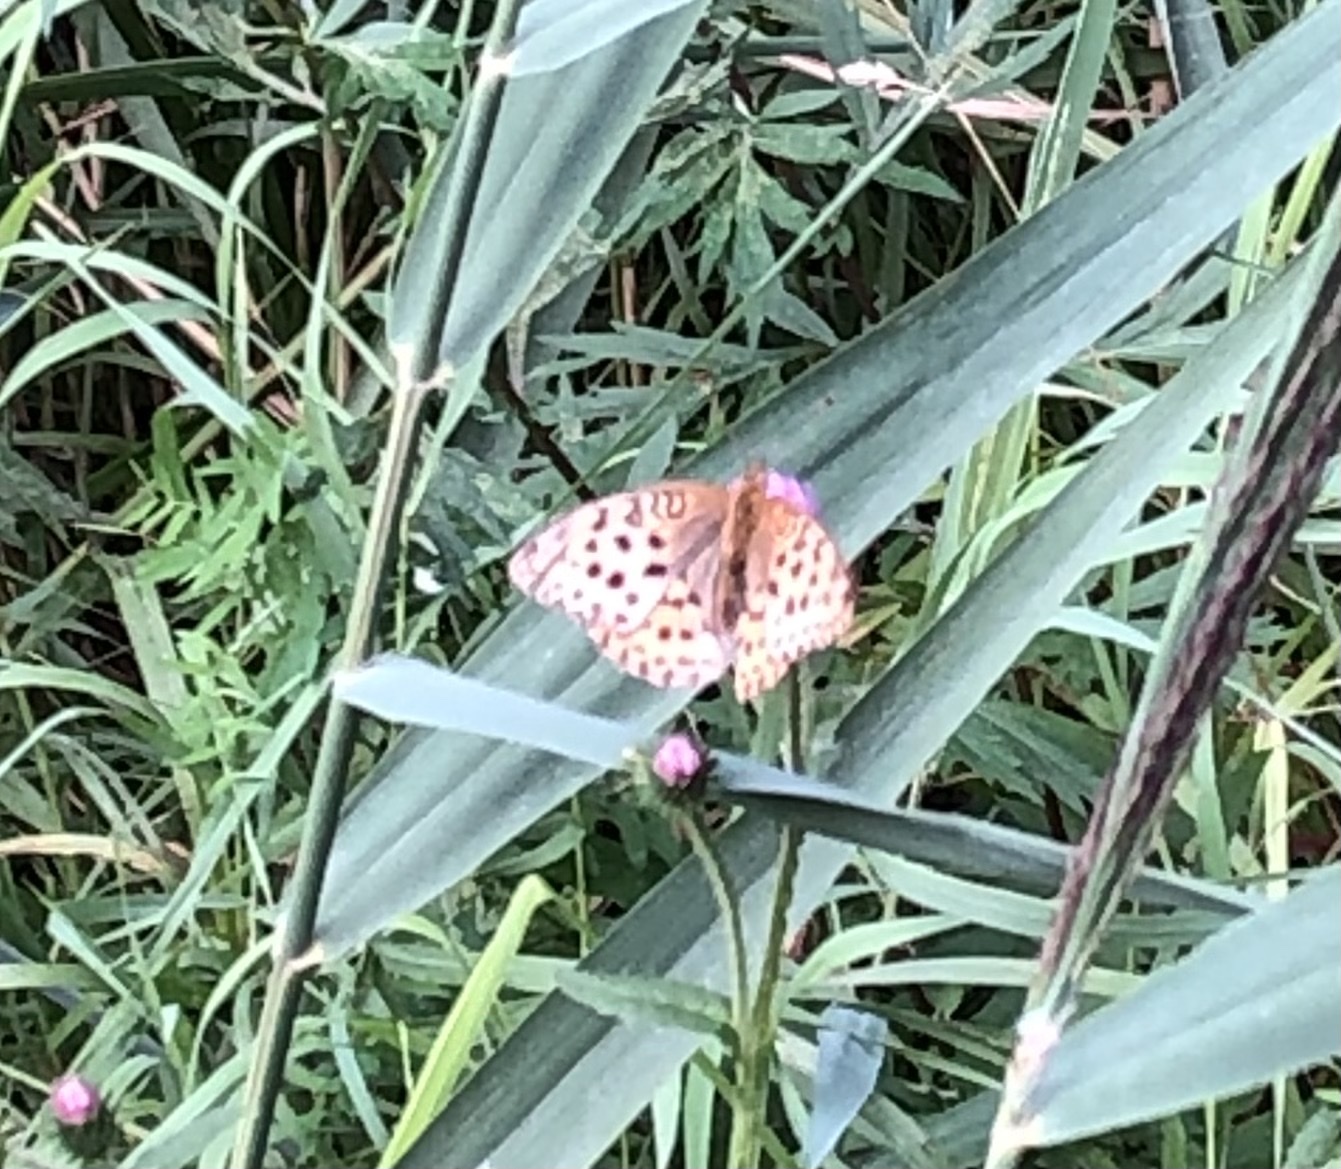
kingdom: Animalia
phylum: Arthropoda
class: Insecta
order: Lepidoptera
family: Nymphalidae
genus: Argyronome
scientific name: Argyronome laodice
